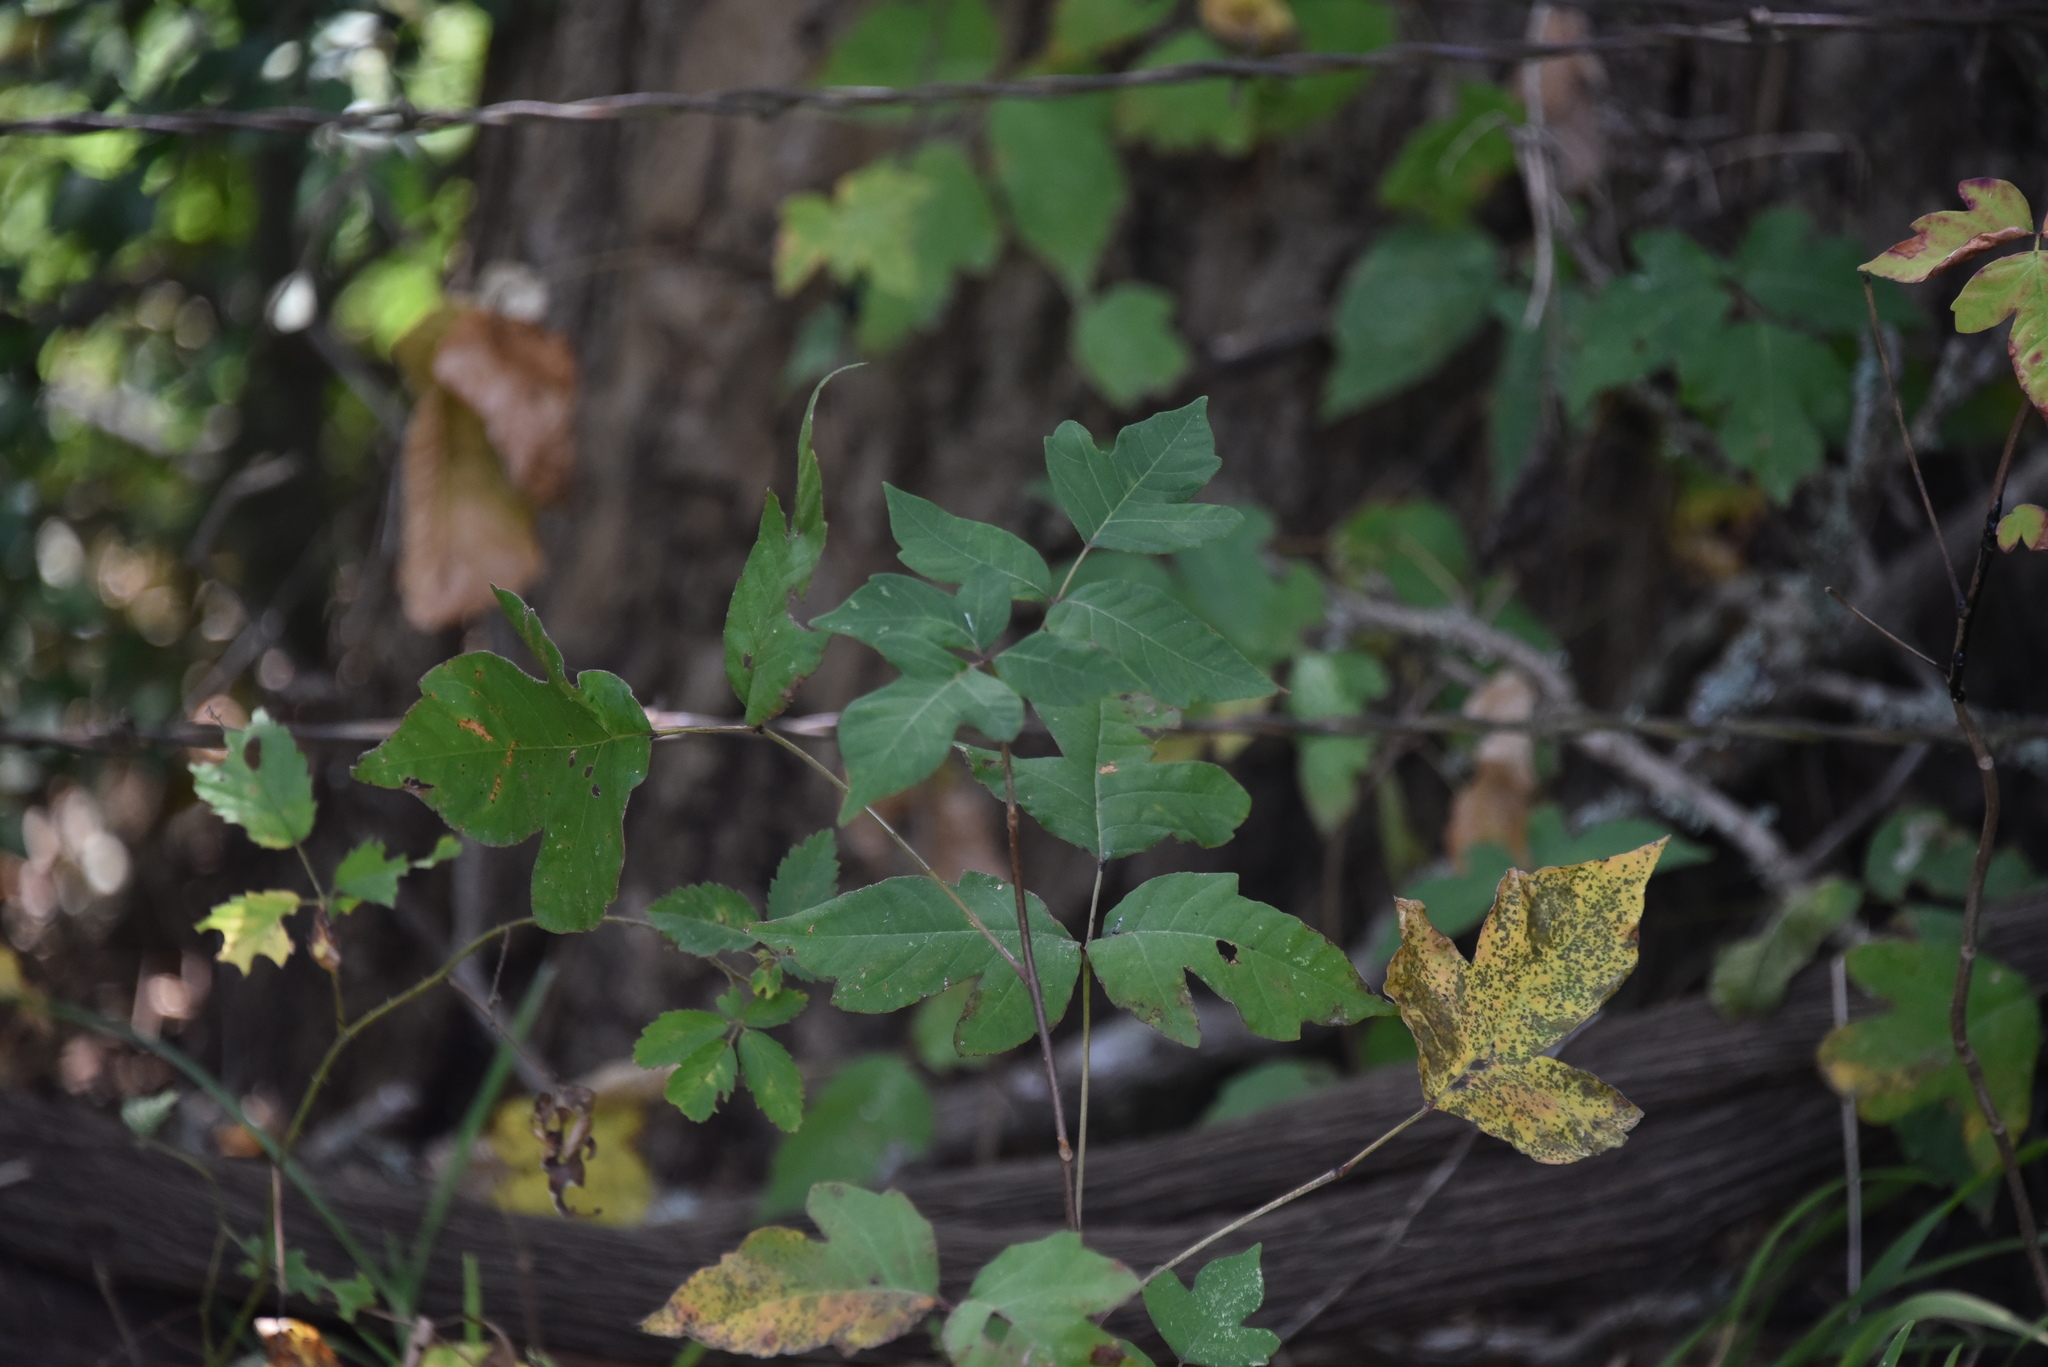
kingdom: Plantae
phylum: Tracheophyta
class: Magnoliopsida
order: Sapindales
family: Anacardiaceae
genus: Toxicodendron
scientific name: Toxicodendron radicans
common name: Poison ivy
